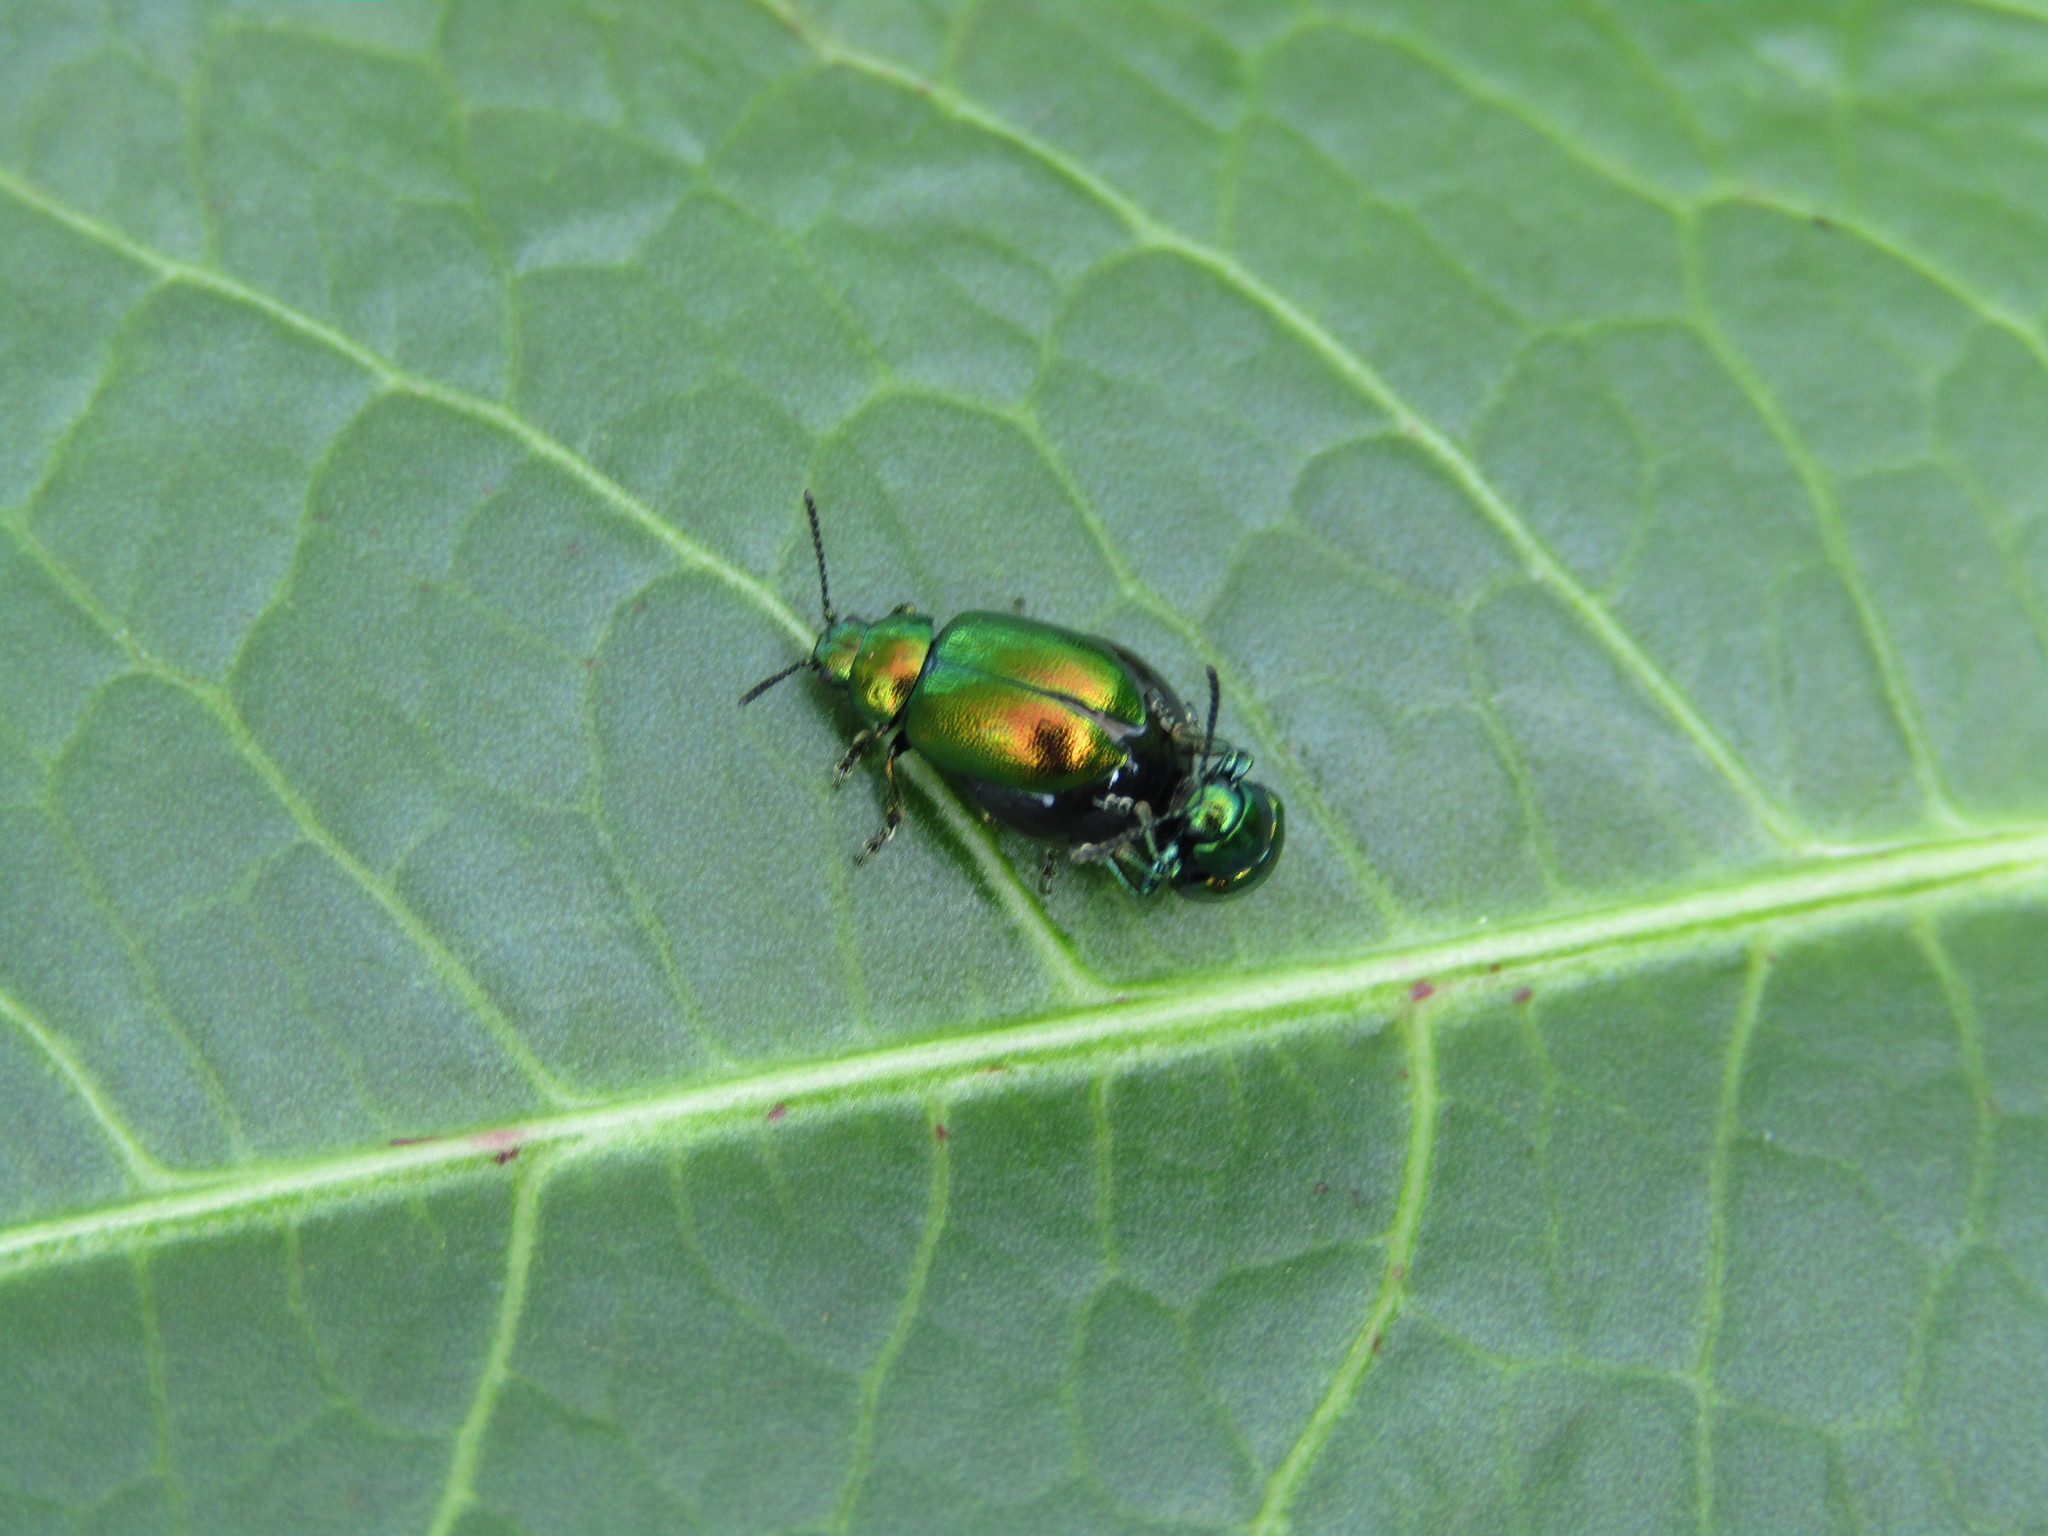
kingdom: Animalia
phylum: Arthropoda
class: Insecta
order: Coleoptera
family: Chrysomelidae
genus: Gastrophysa
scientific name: Gastrophysa viridula
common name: Green dock beetle
